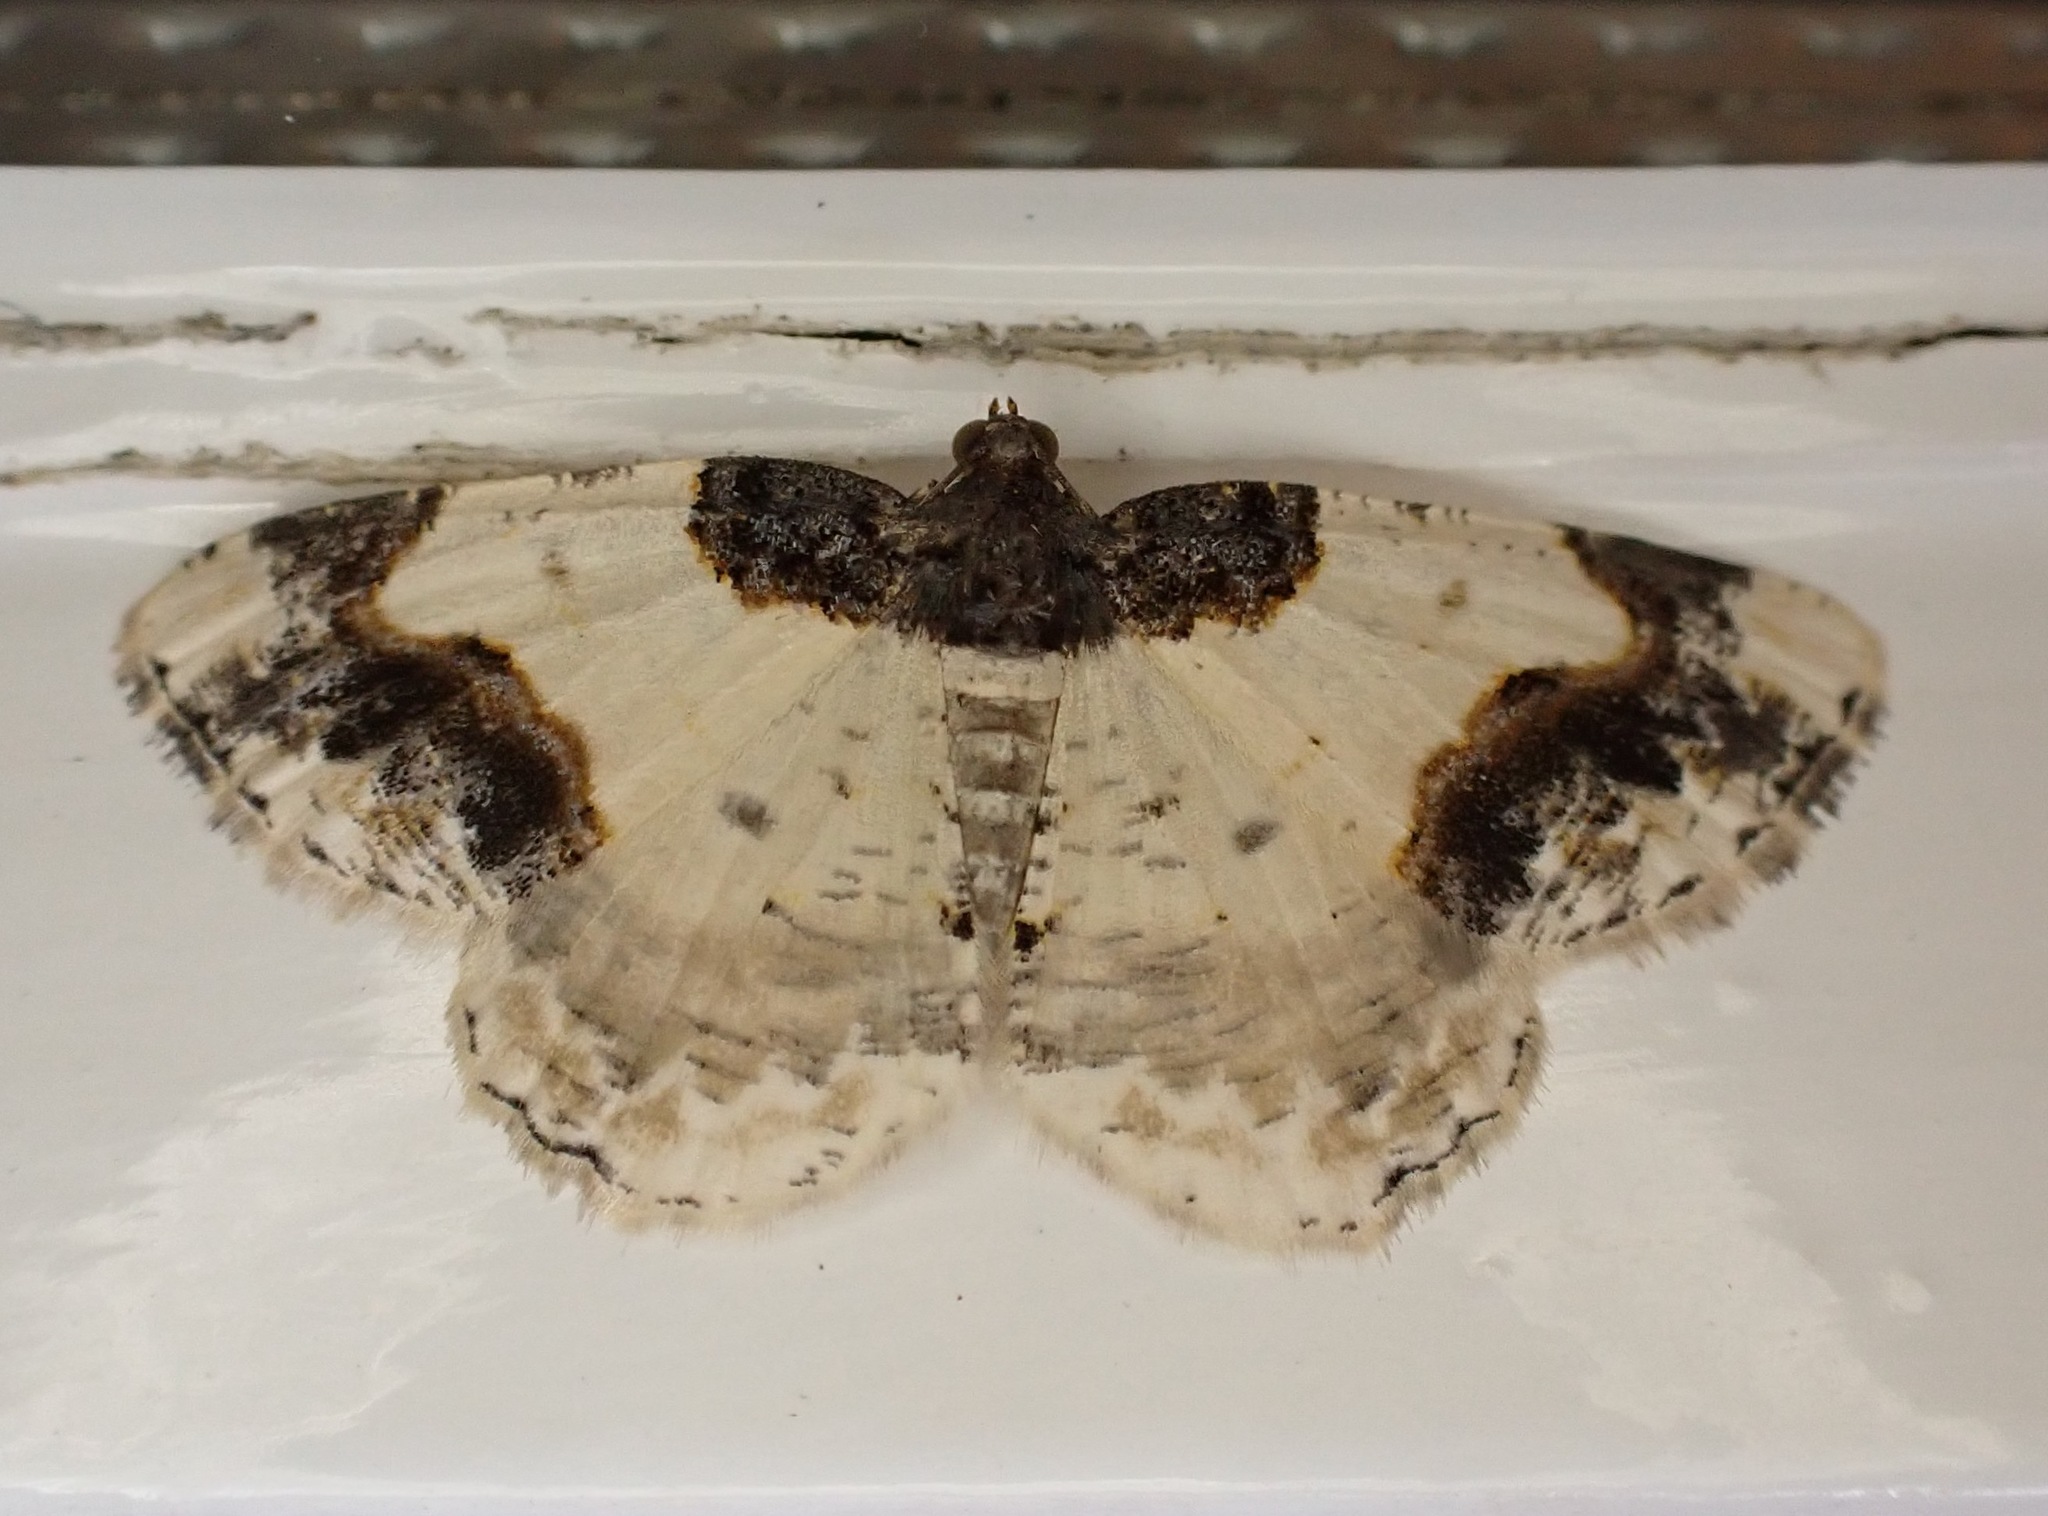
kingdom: Animalia
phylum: Arthropoda
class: Insecta
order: Lepidoptera
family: Geometridae
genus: Ligdia
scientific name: Ligdia adustata
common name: Scorched carpet
